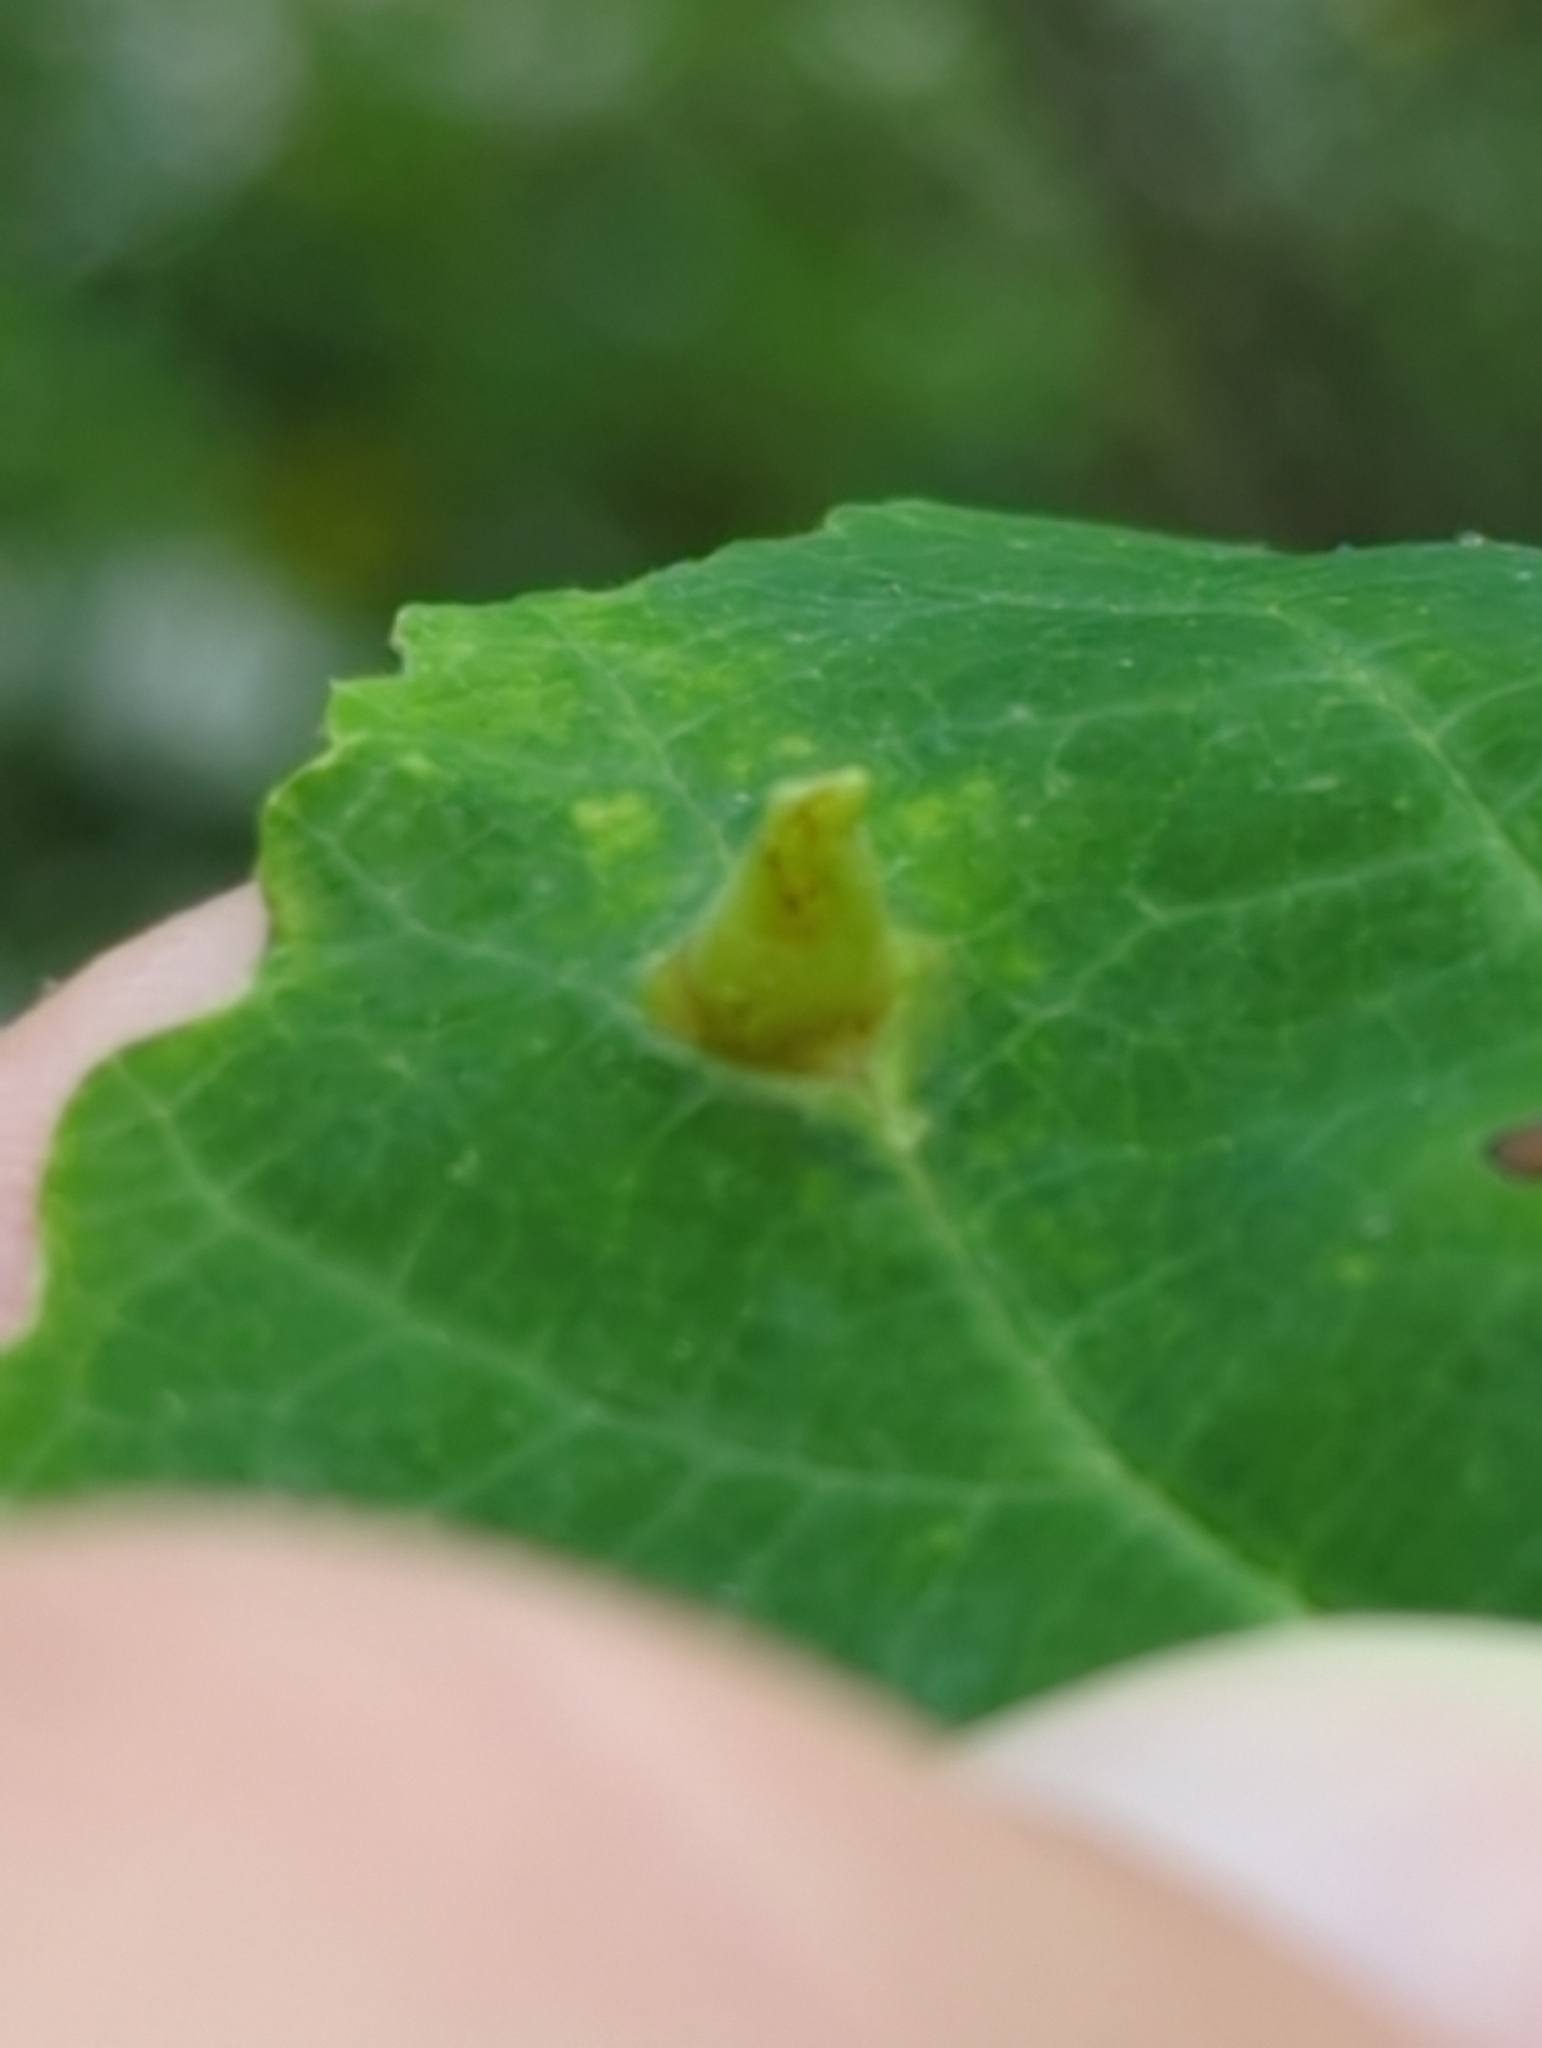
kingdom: Animalia
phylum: Arthropoda
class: Insecta
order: Hemiptera
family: Aphididae
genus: Hormaphis
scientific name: Hormaphis hamamelidis
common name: Witch-hazel cone gall aphid
